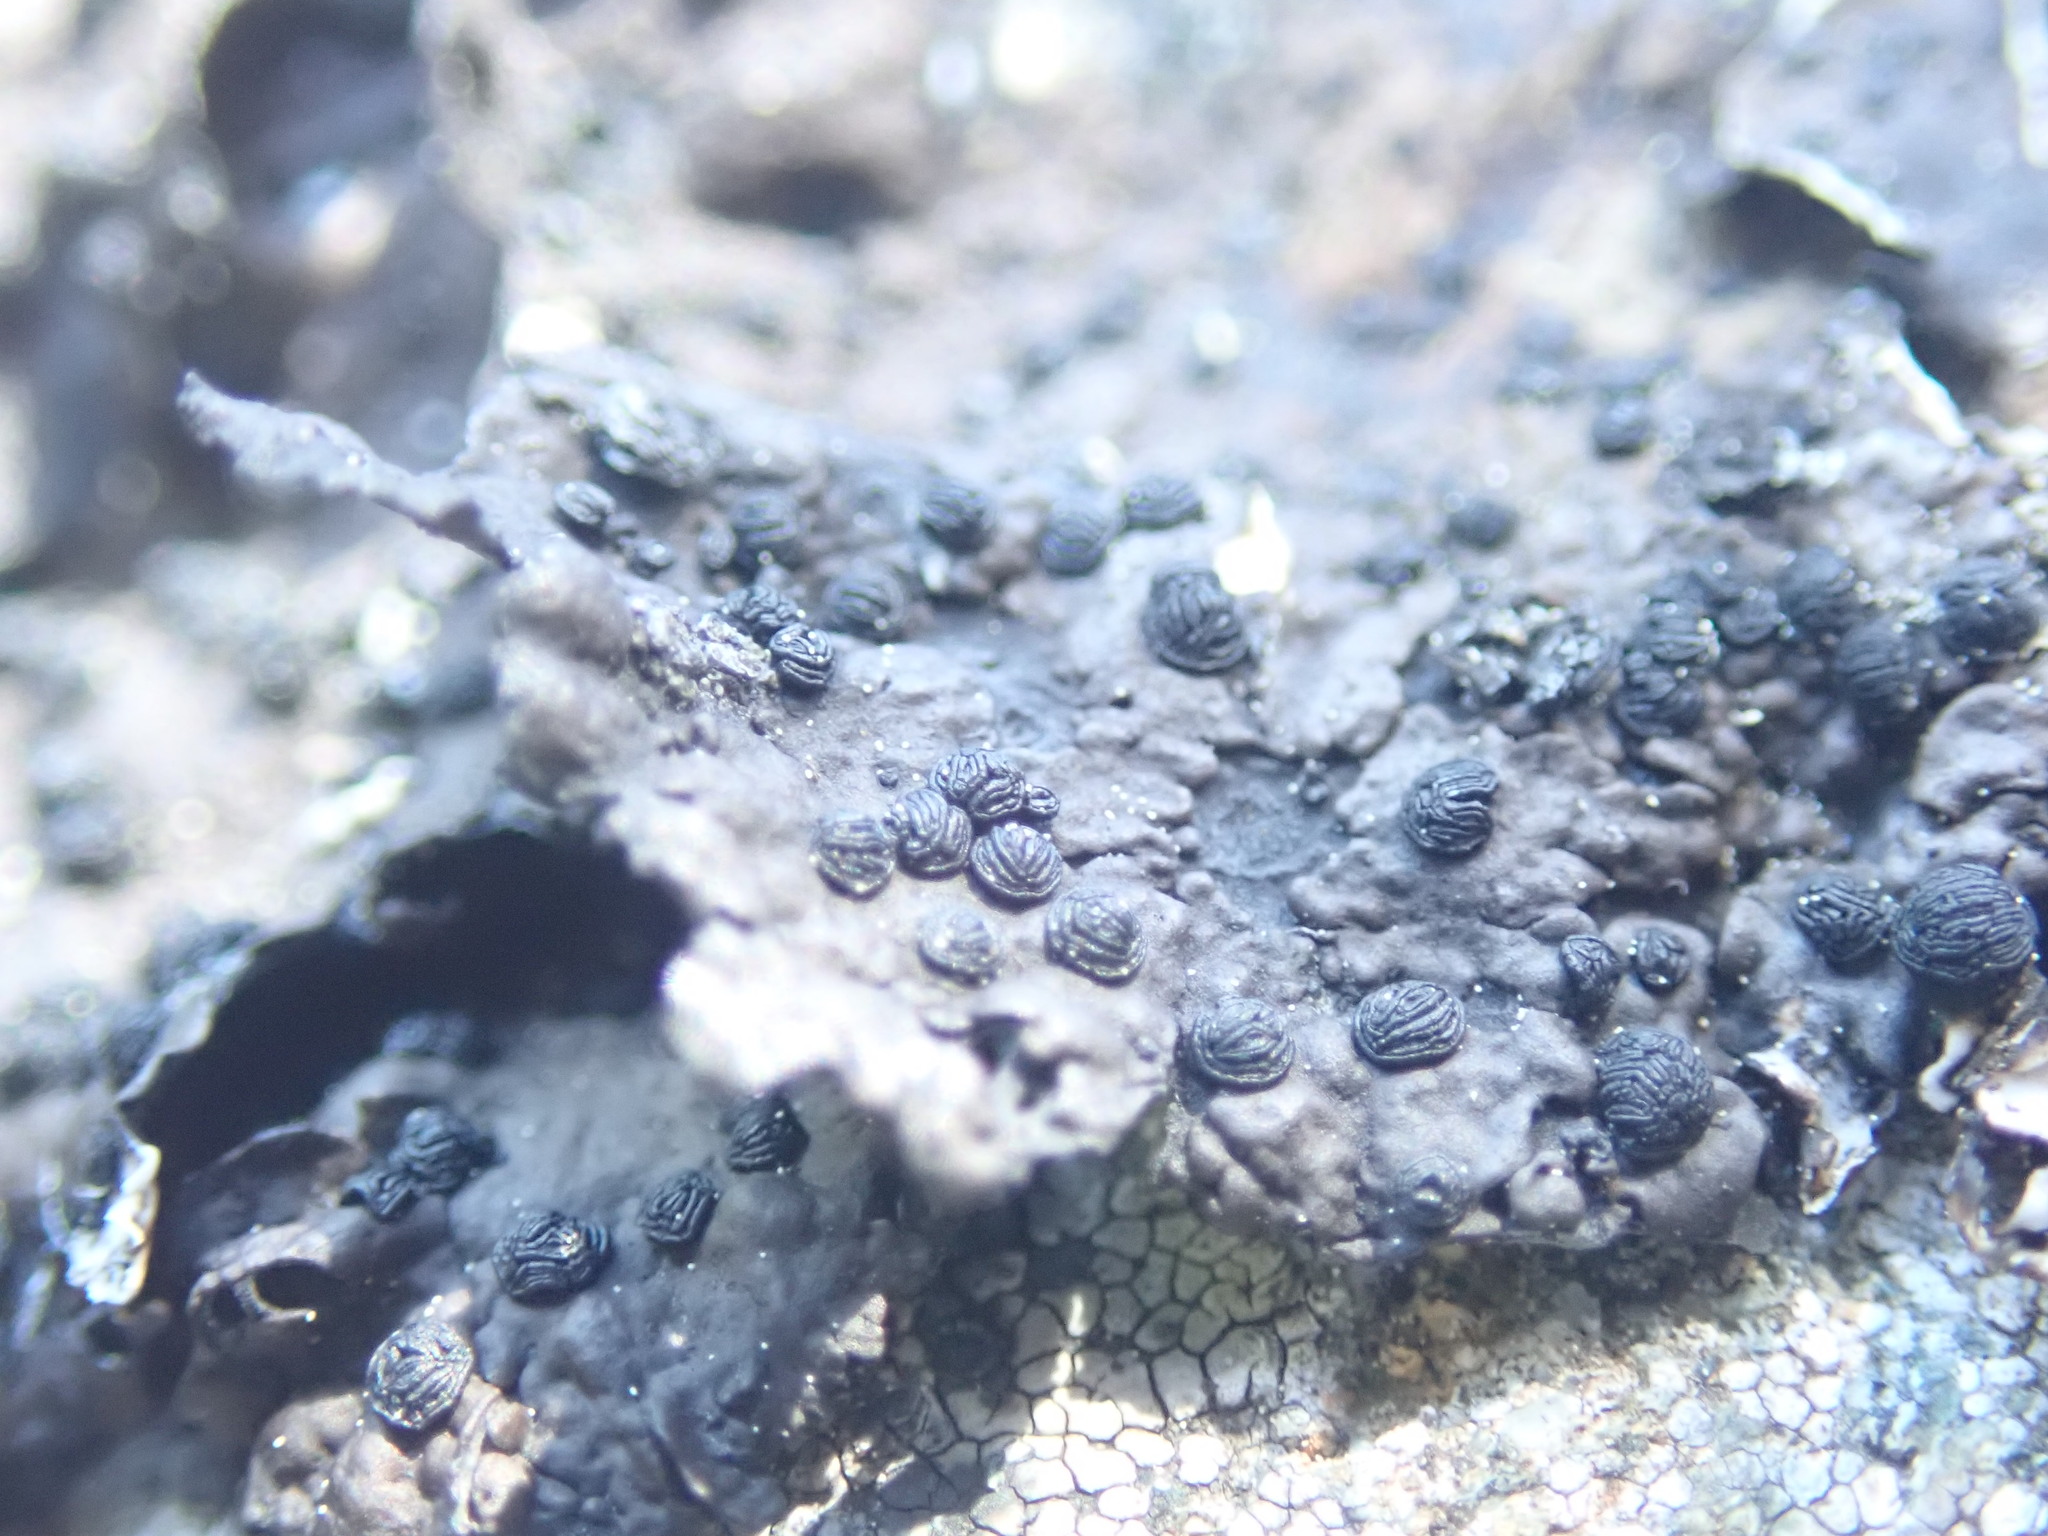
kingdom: Fungi
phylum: Ascomycota
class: Lecanoromycetes
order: Umbilicariales
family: Umbilicariaceae
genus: Umbilicaria
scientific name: Umbilicaria hyperborea
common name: Blistered rock tripe
